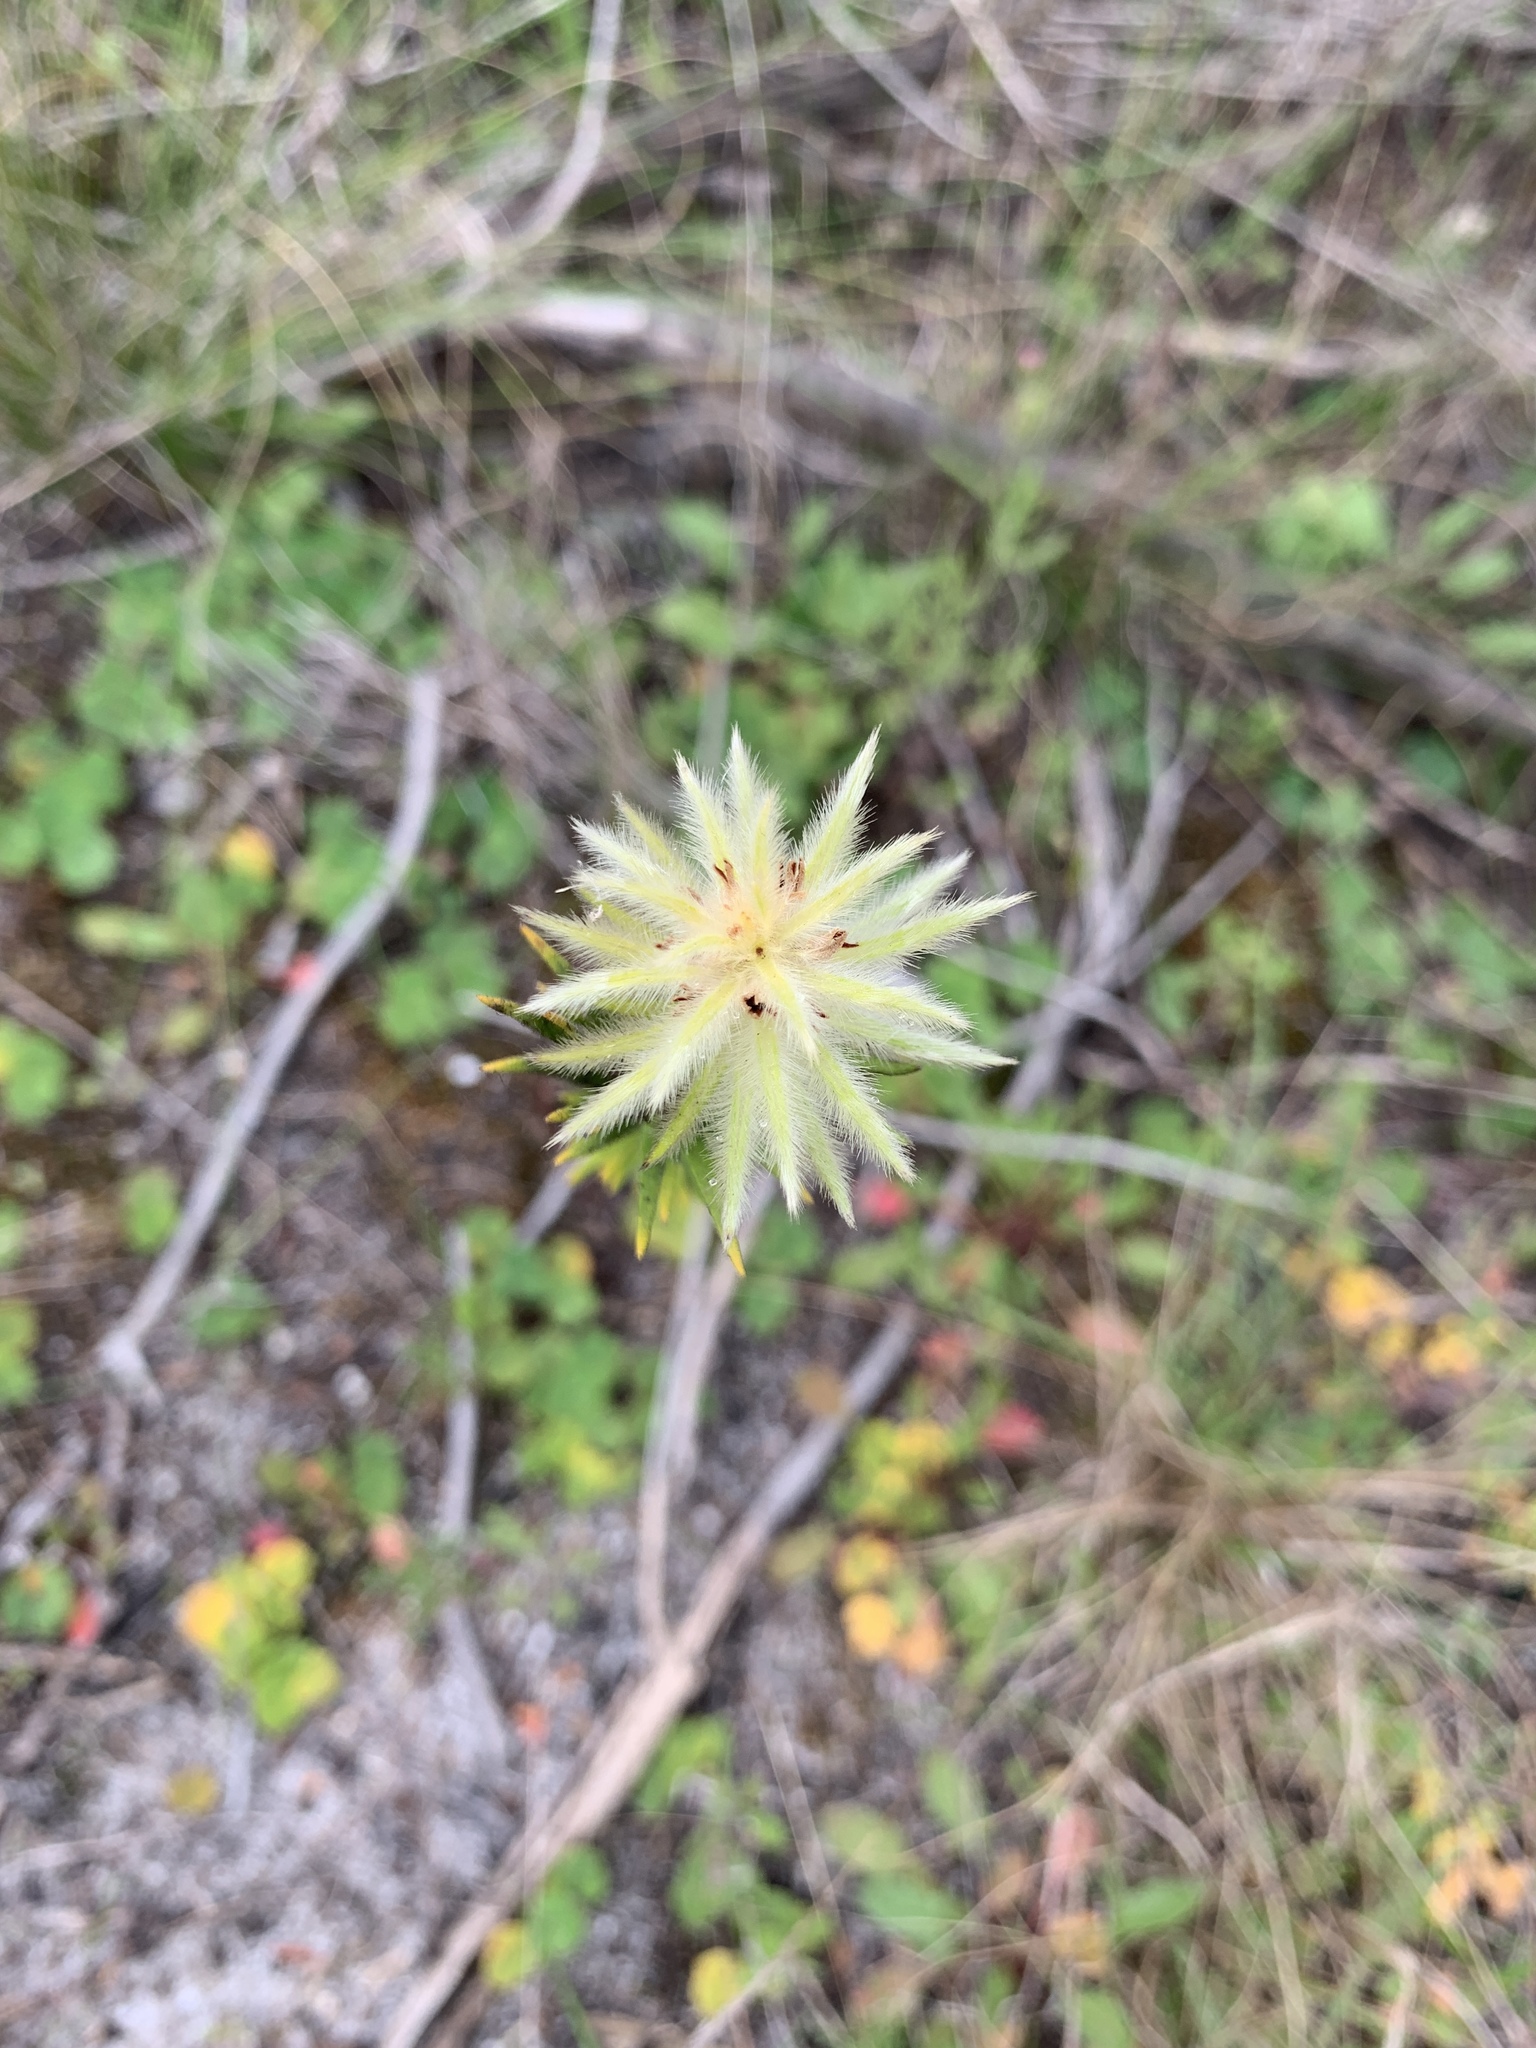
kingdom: Plantae
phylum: Tracheophyta
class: Magnoliopsida
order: Rosales
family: Rhamnaceae
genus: Phylica
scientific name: Phylica pubescens
